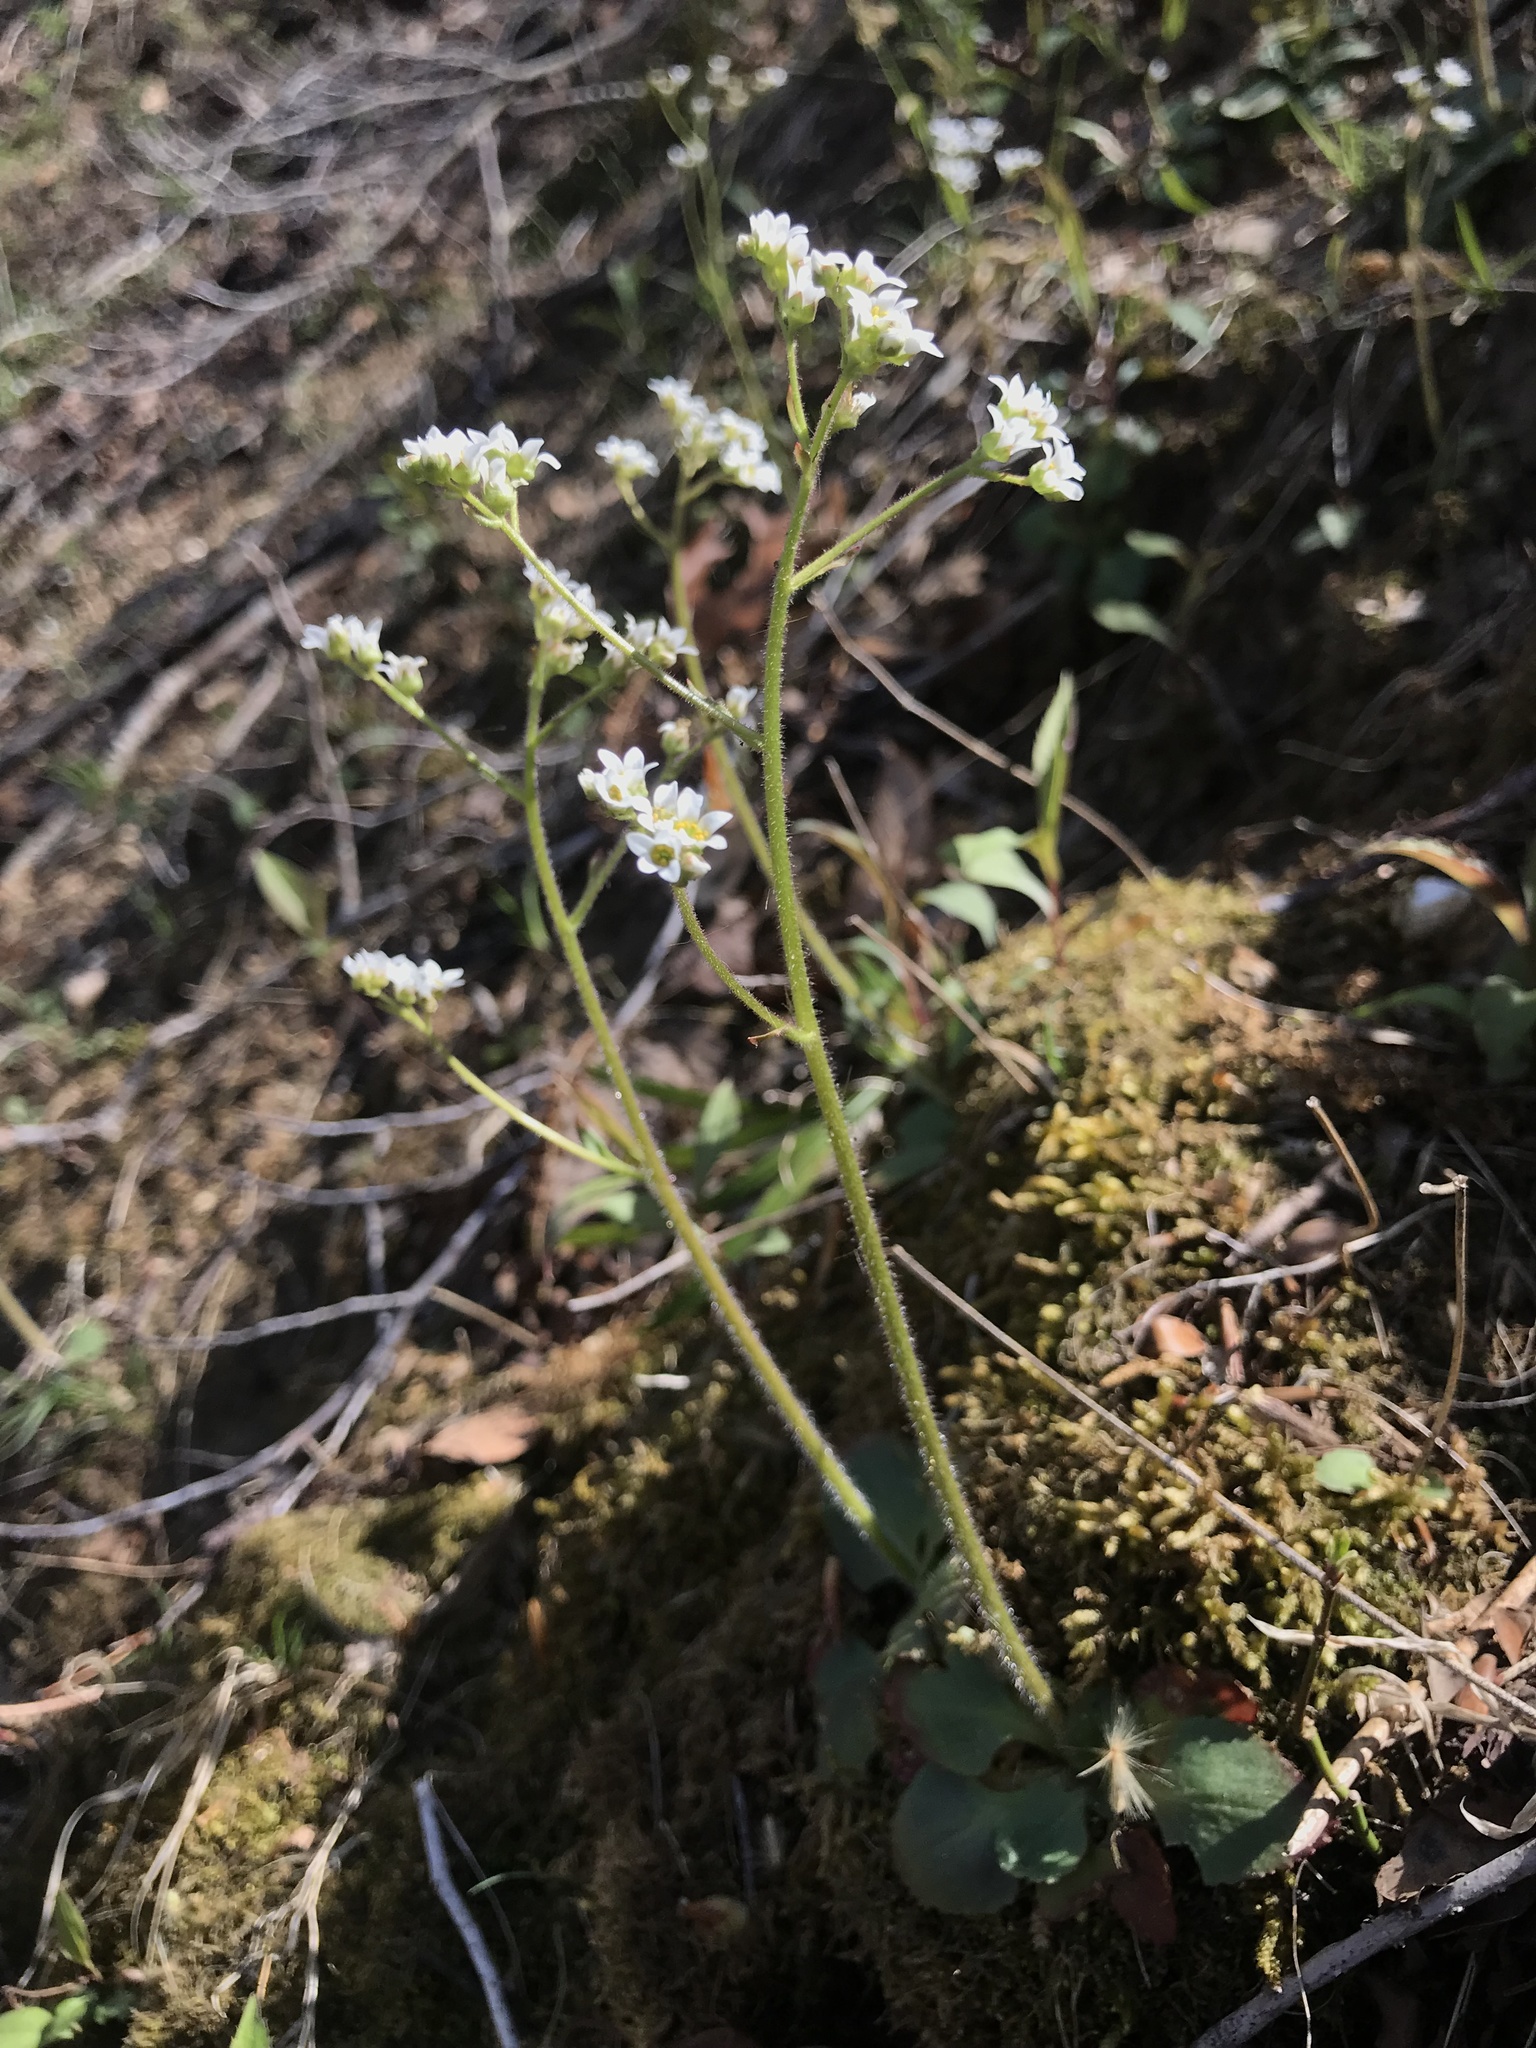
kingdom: Plantae
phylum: Tracheophyta
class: Magnoliopsida
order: Saxifragales
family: Saxifragaceae
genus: Micranthes
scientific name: Micranthes virginiensis
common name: Early saxifrage
